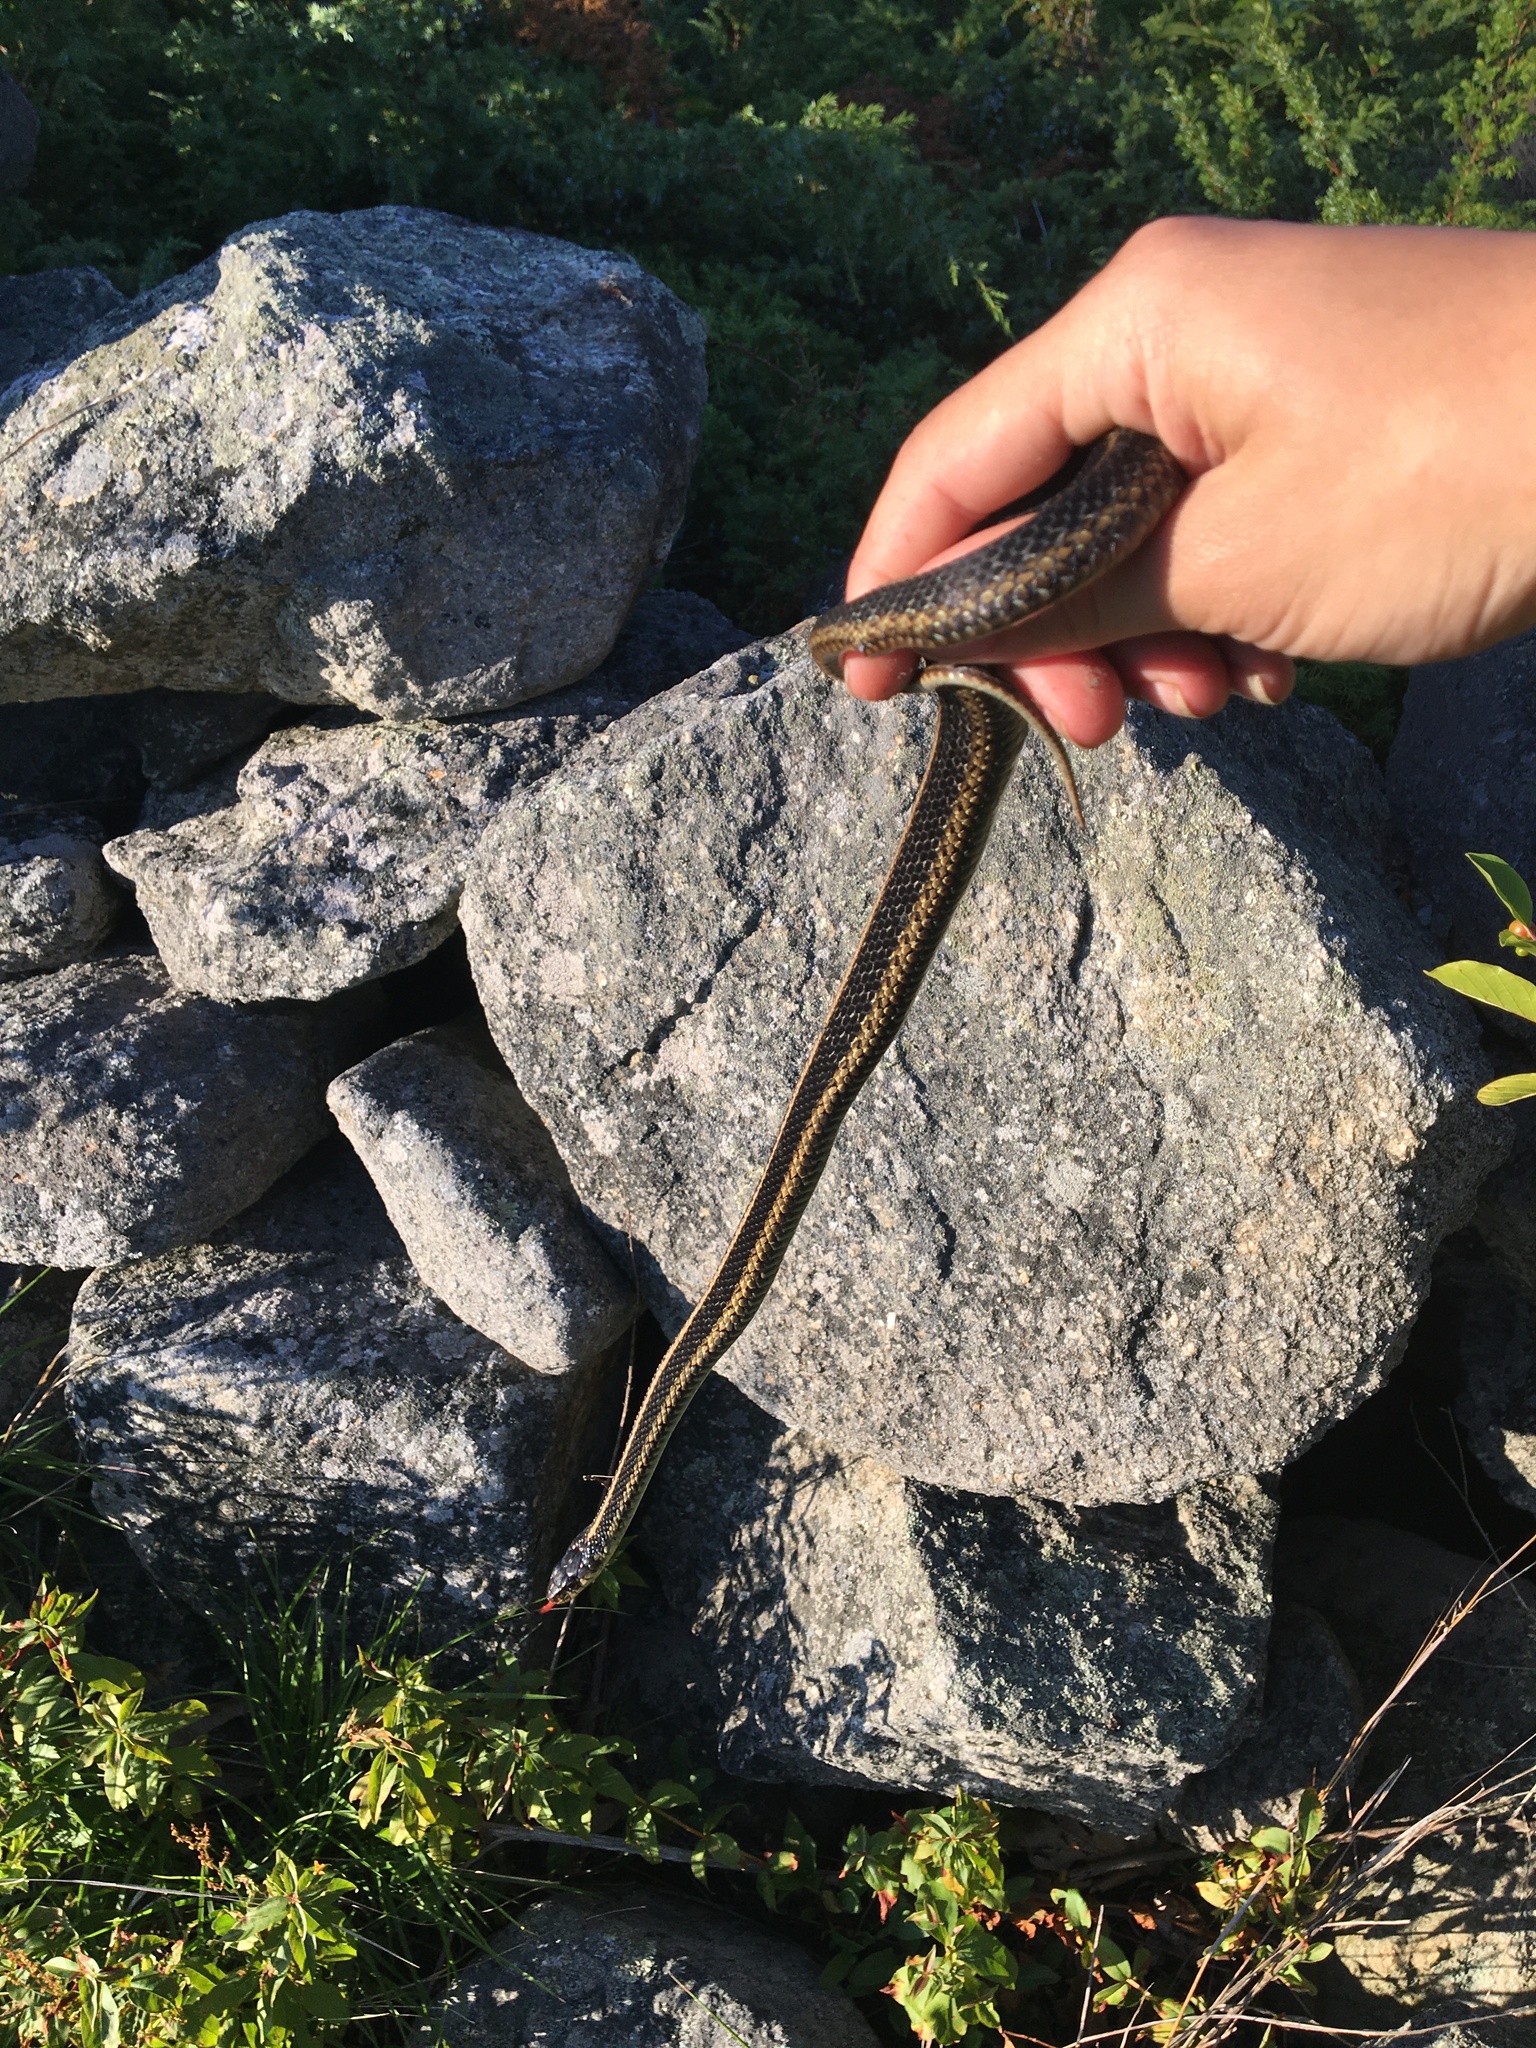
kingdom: Animalia
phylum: Chordata
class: Squamata
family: Colubridae
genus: Thamnophis
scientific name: Thamnophis sirtalis
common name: Common garter snake
